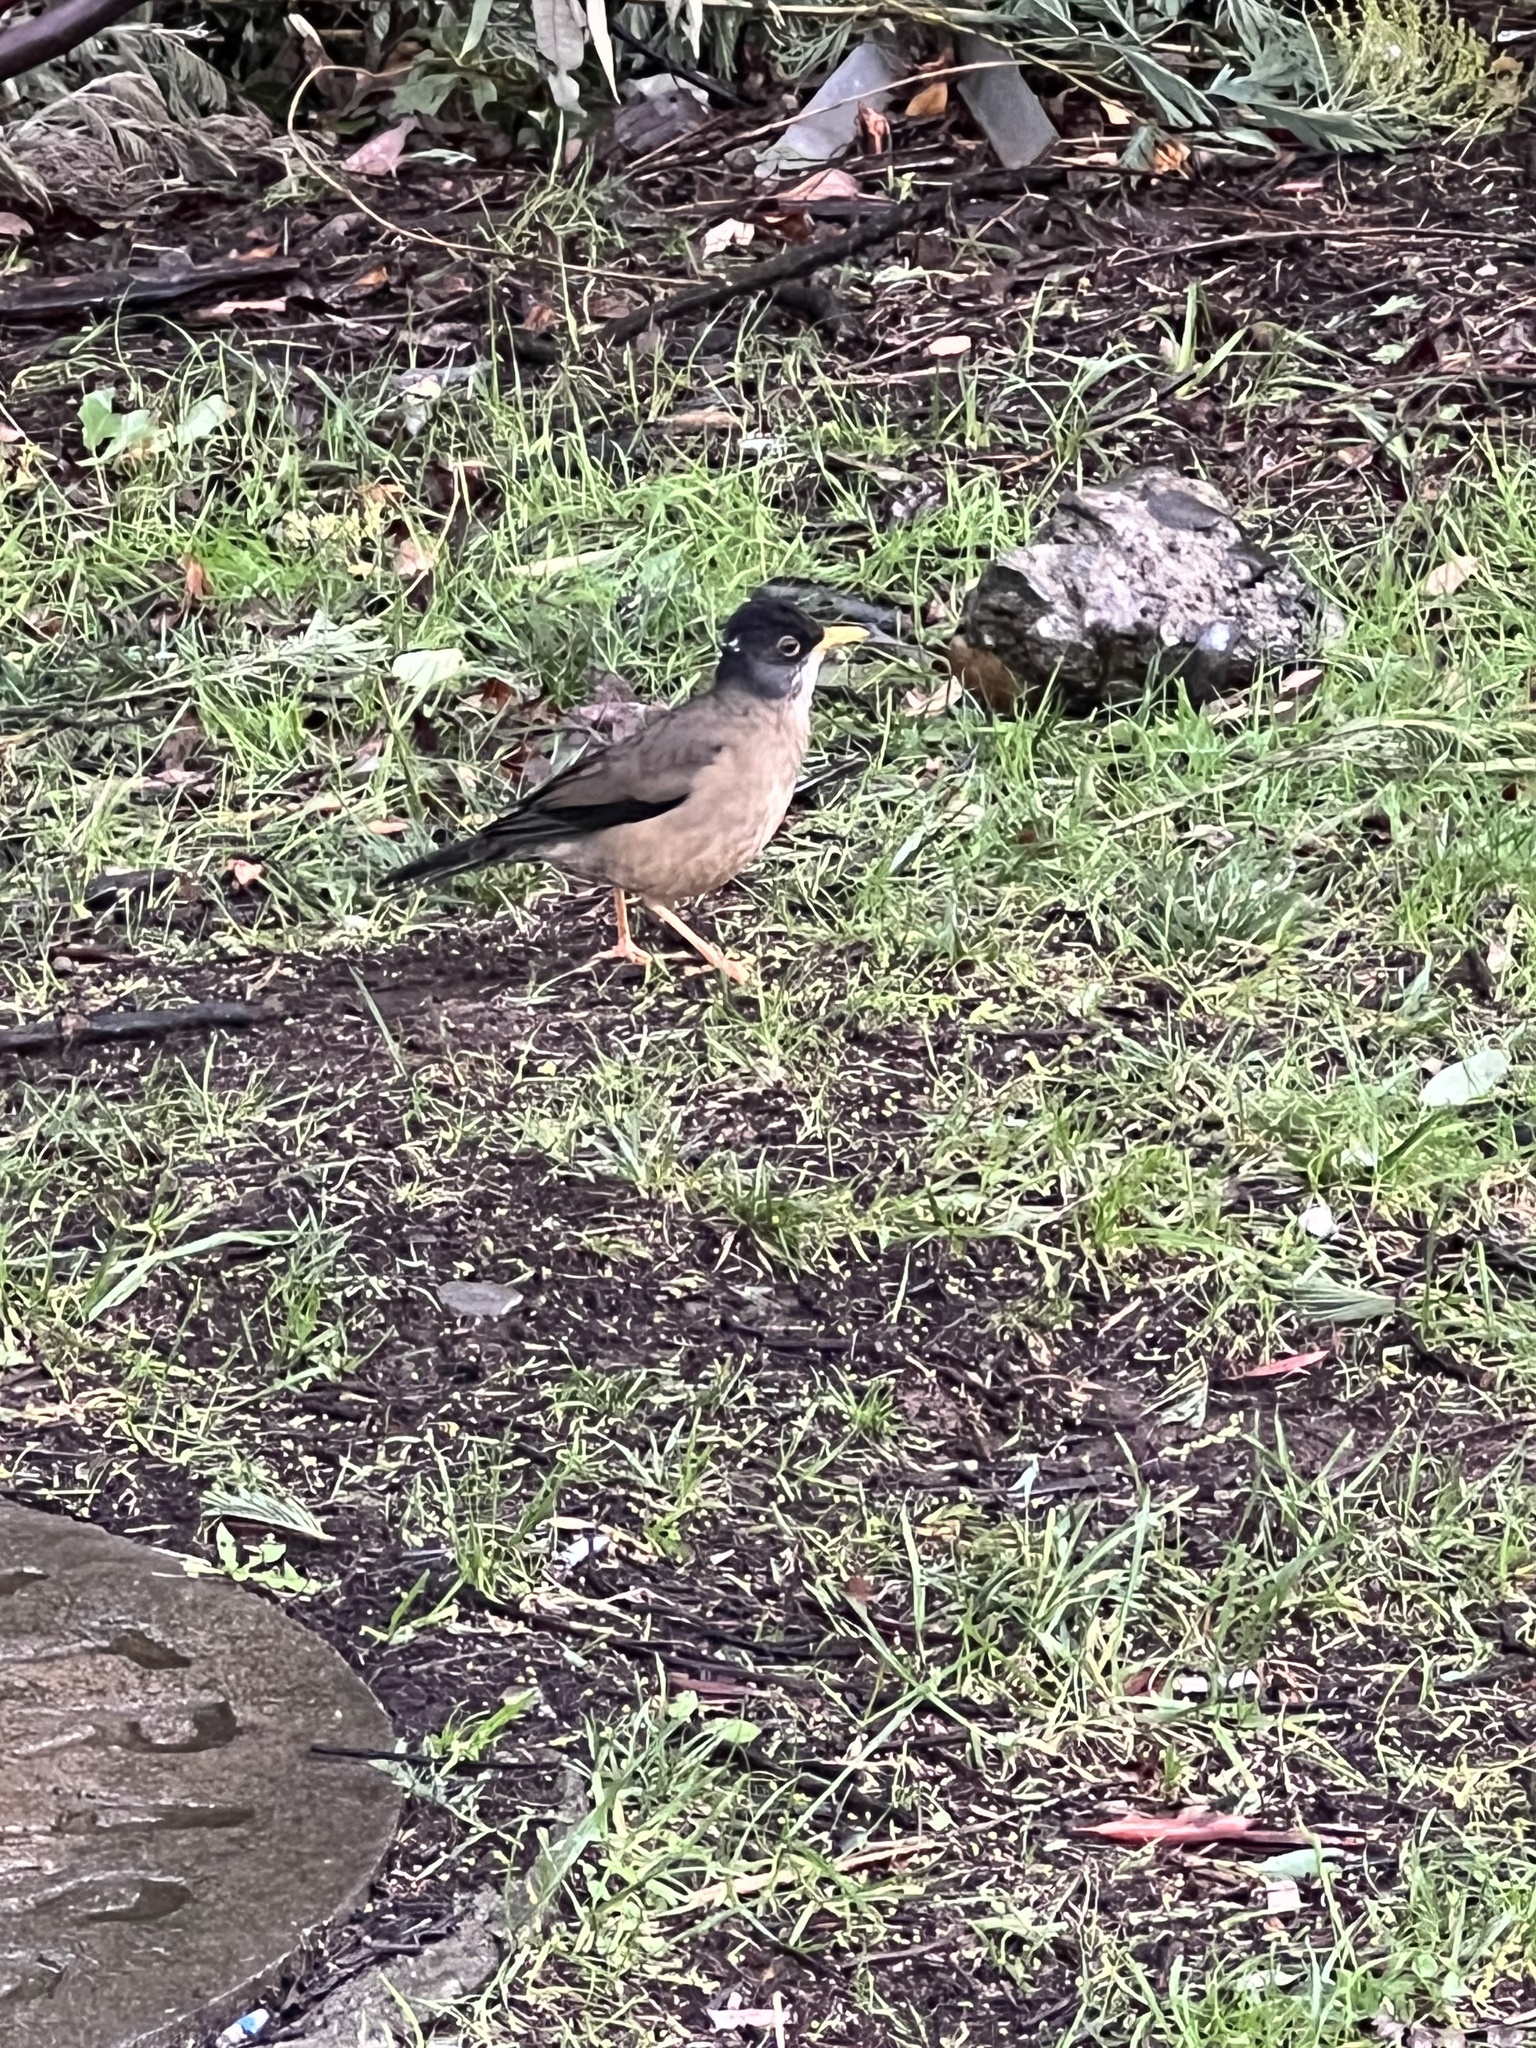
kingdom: Animalia
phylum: Chordata
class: Aves
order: Passeriformes
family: Turdidae
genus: Turdus
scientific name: Turdus falcklandii
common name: Austral thrush
